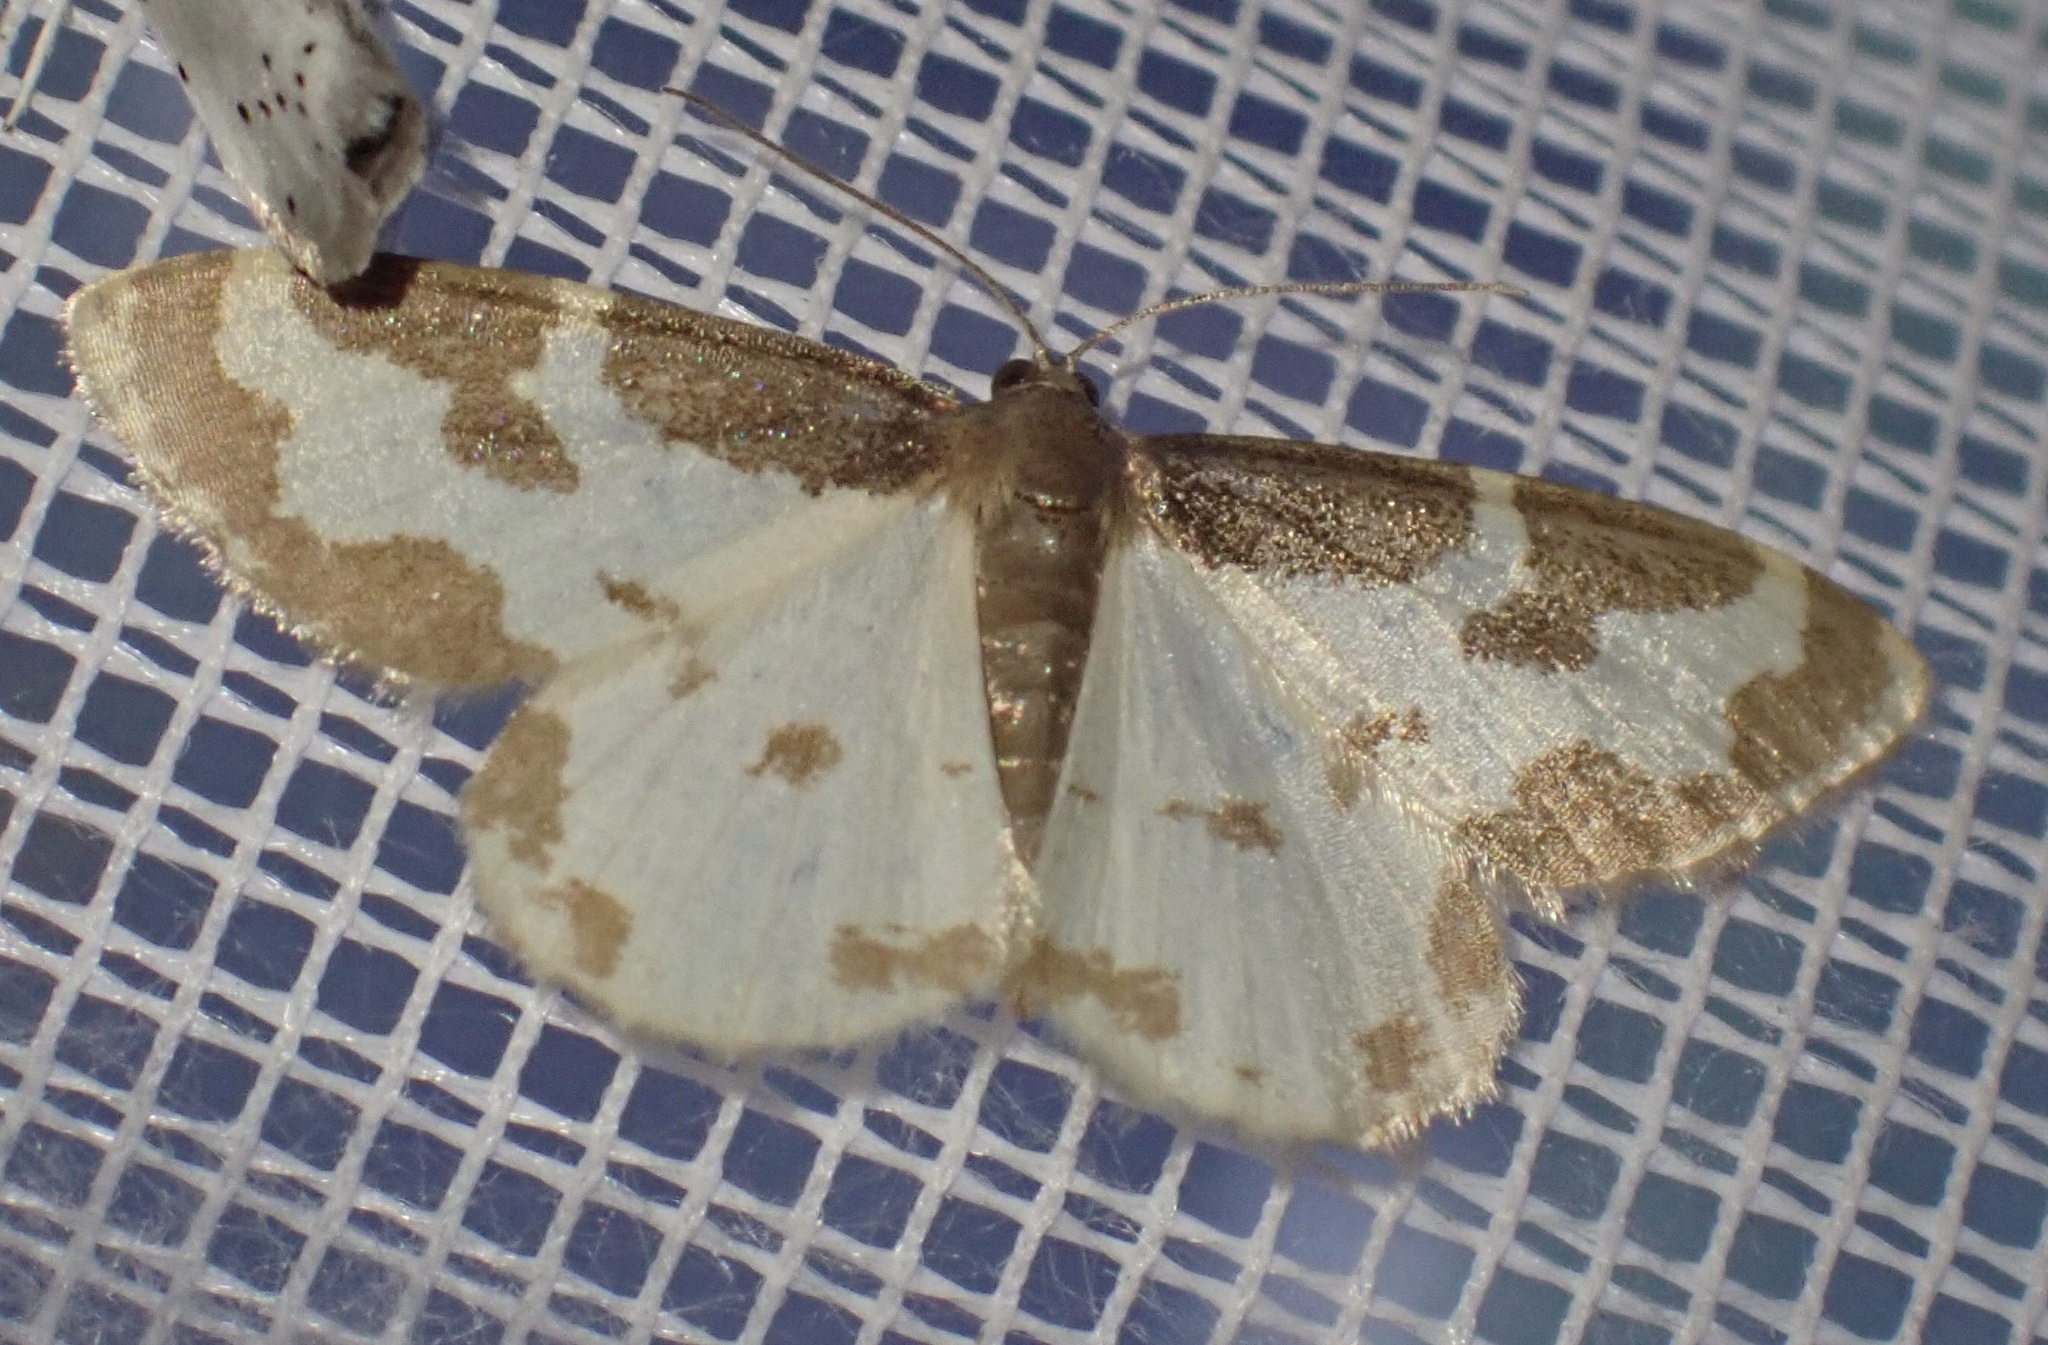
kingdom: Animalia
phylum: Arthropoda
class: Insecta
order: Lepidoptera
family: Geometridae
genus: Lomaspilis
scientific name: Lomaspilis marginata
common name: Clouded border
